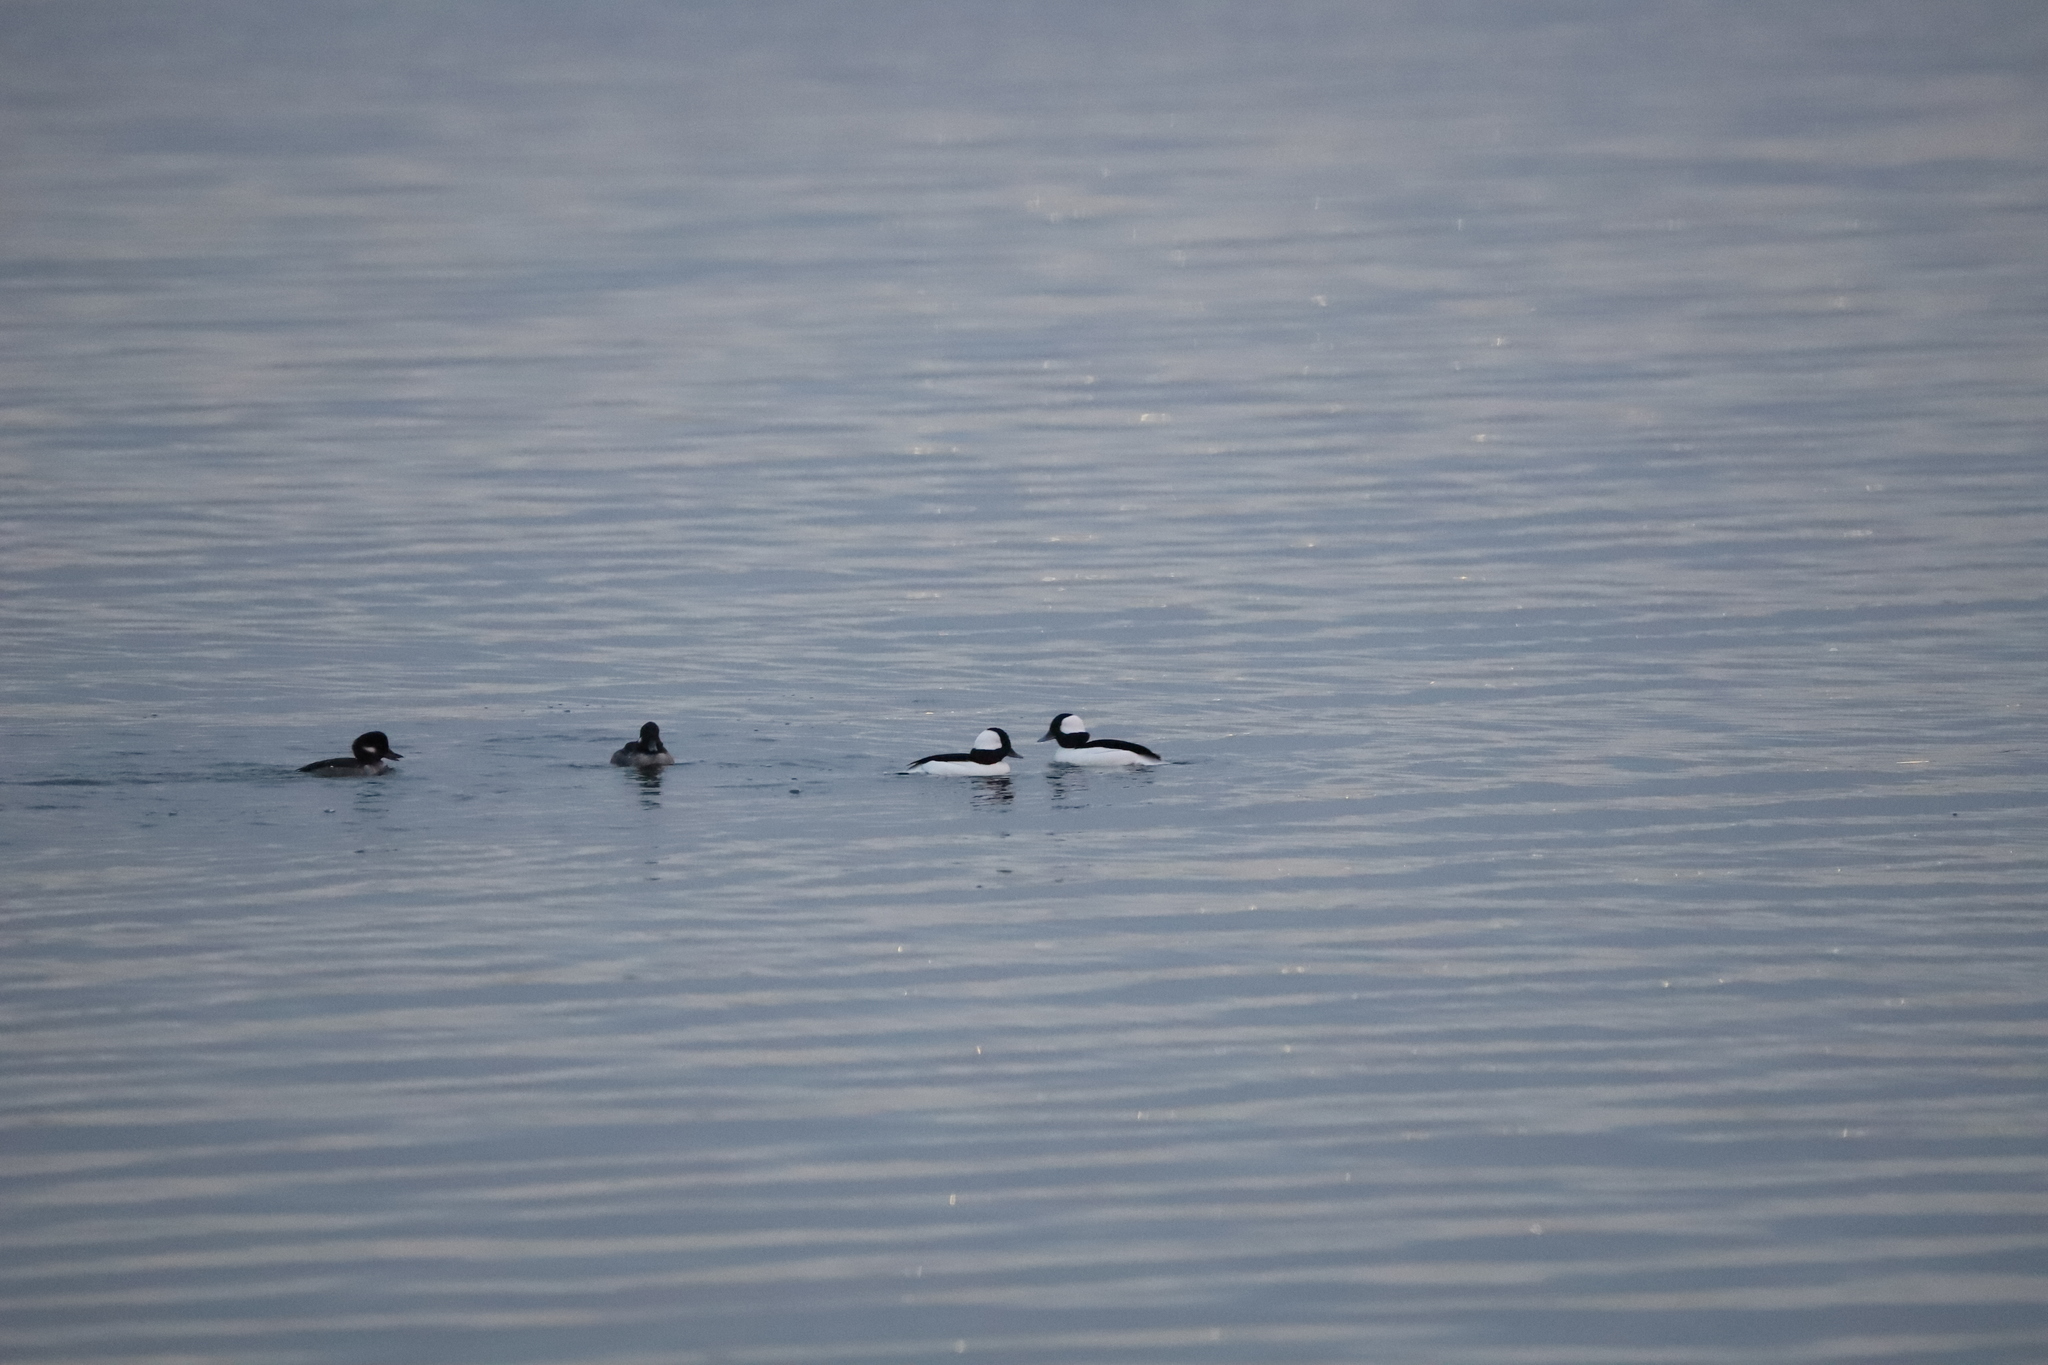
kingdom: Animalia
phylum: Chordata
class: Aves
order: Anseriformes
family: Anatidae
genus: Bucephala
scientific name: Bucephala albeola
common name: Bufflehead
